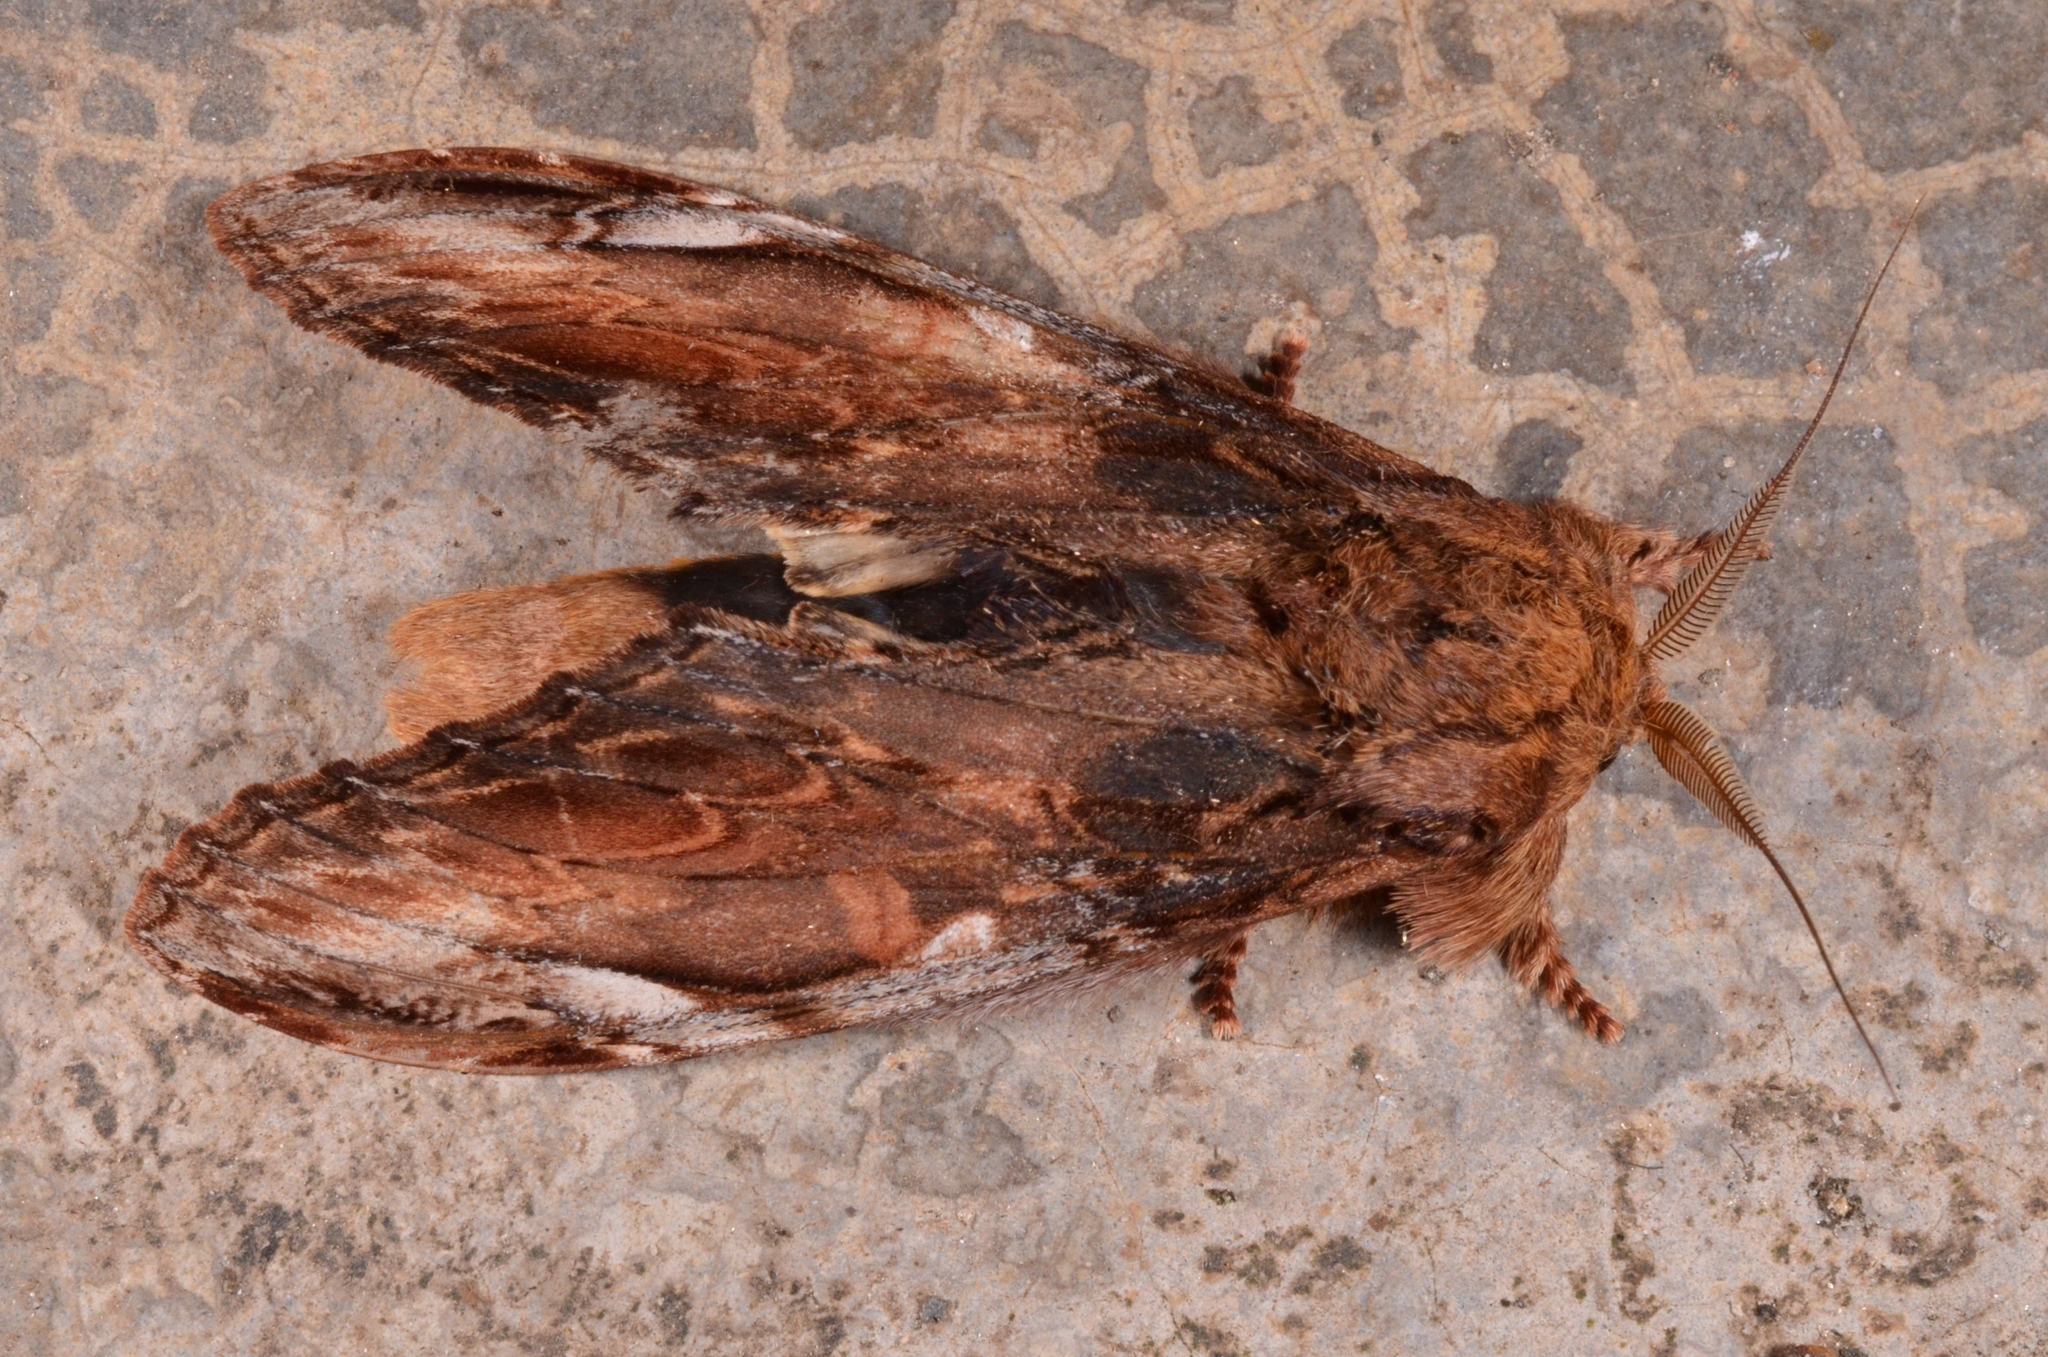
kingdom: Animalia
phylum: Arthropoda
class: Insecta
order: Lepidoptera
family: Notodontidae
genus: Acmeshachia
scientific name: Acmeshachia gigantea
